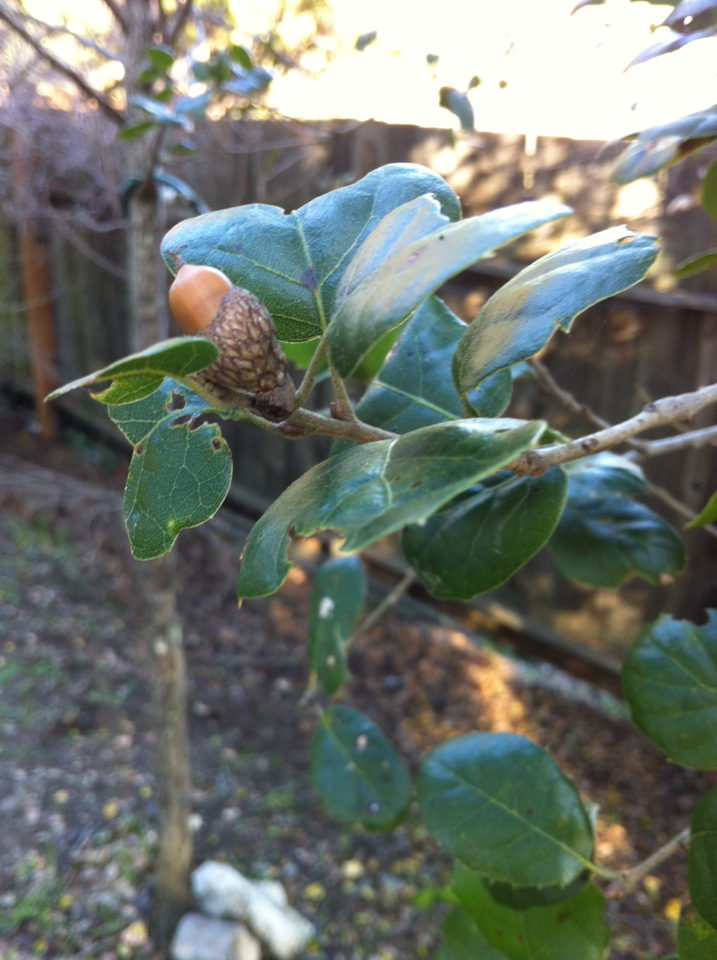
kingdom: Plantae
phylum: Tracheophyta
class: Magnoliopsida
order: Fagales
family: Fagaceae
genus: Quercus
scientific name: Quercus agrifolia
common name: California live oak
